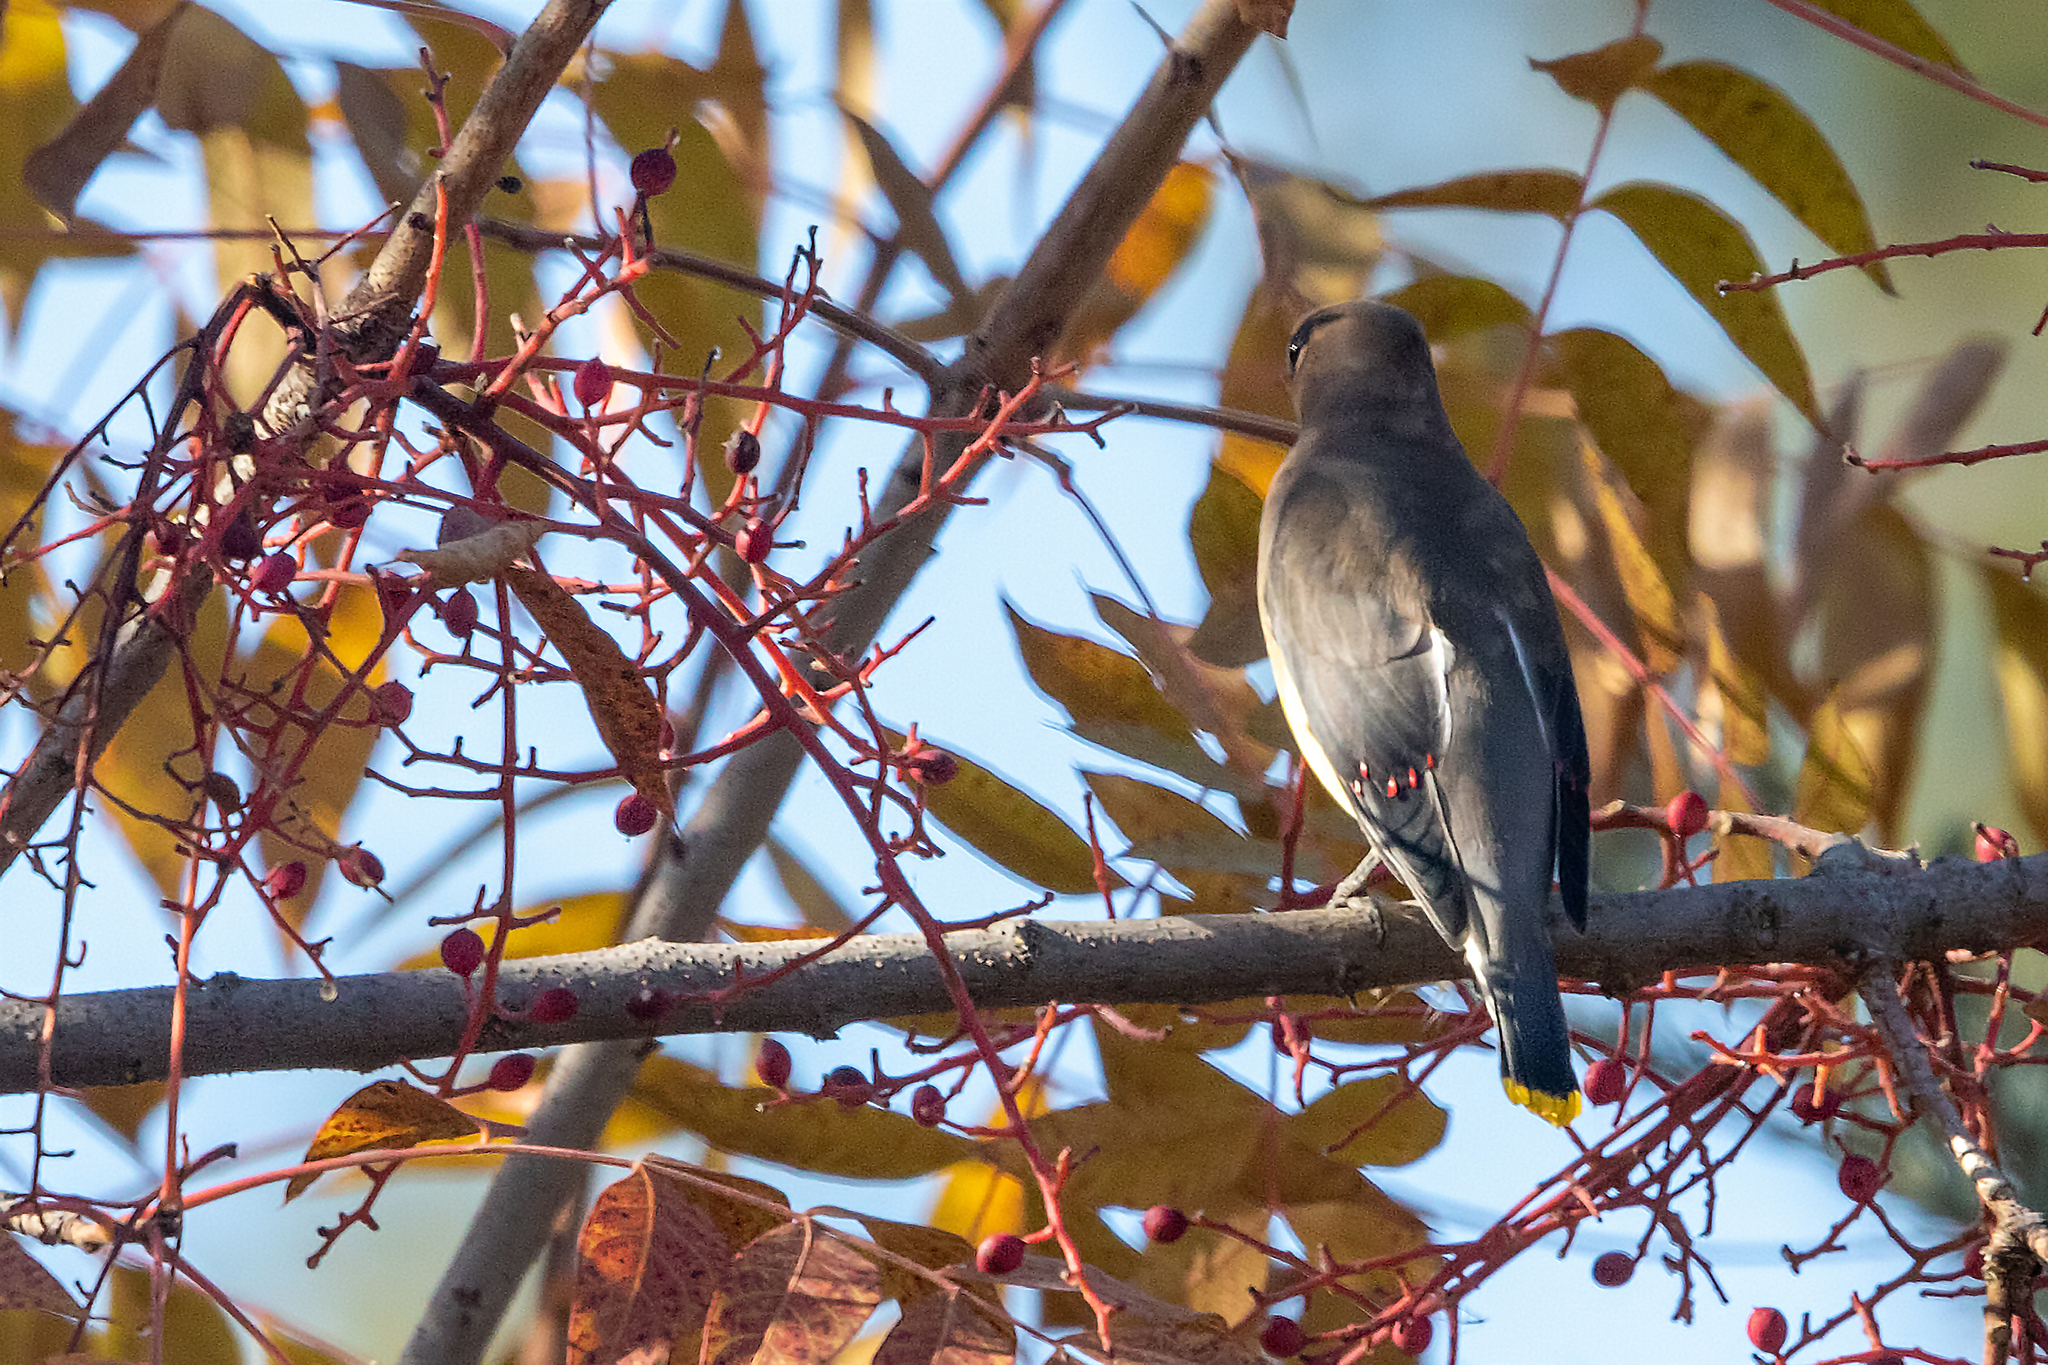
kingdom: Animalia
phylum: Chordata
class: Aves
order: Passeriformes
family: Bombycillidae
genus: Bombycilla
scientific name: Bombycilla cedrorum
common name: Cedar waxwing
